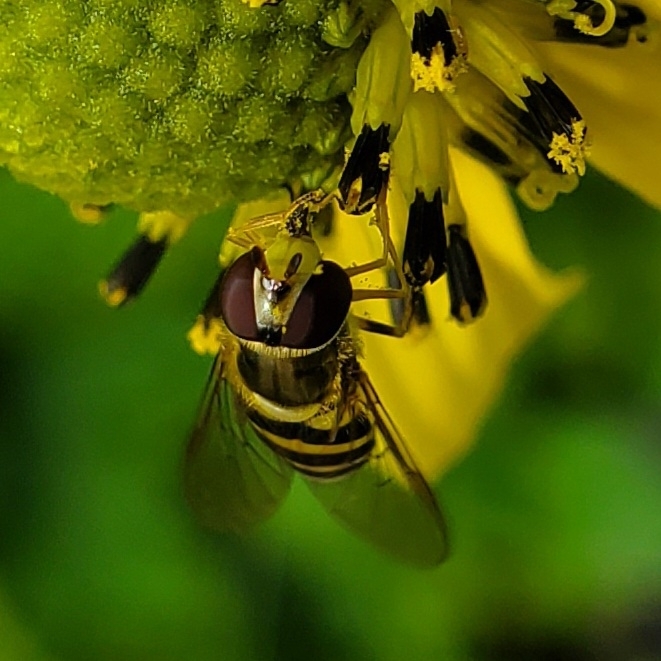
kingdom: Animalia
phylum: Arthropoda
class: Insecta
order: Diptera
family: Syrphidae
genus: Syrphus
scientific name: Syrphus rectus
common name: Yellow-legged flower fly
